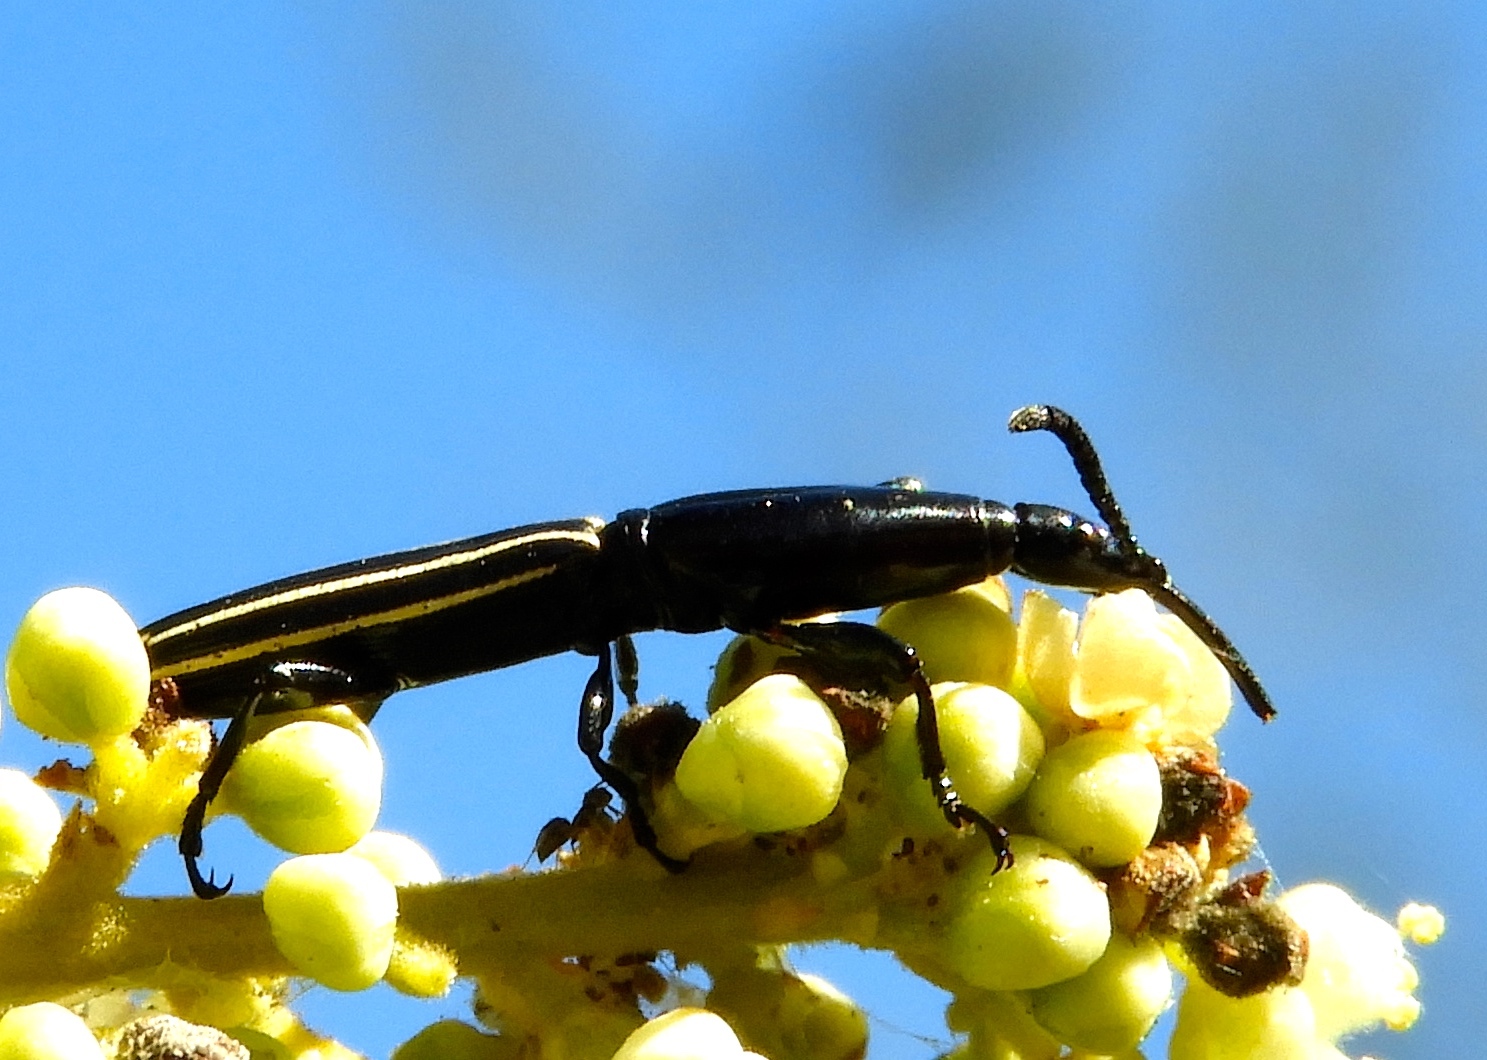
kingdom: Animalia
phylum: Arthropoda
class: Insecta
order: Coleoptera
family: Brentidae
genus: Brentus
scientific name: Brentus anchorago
